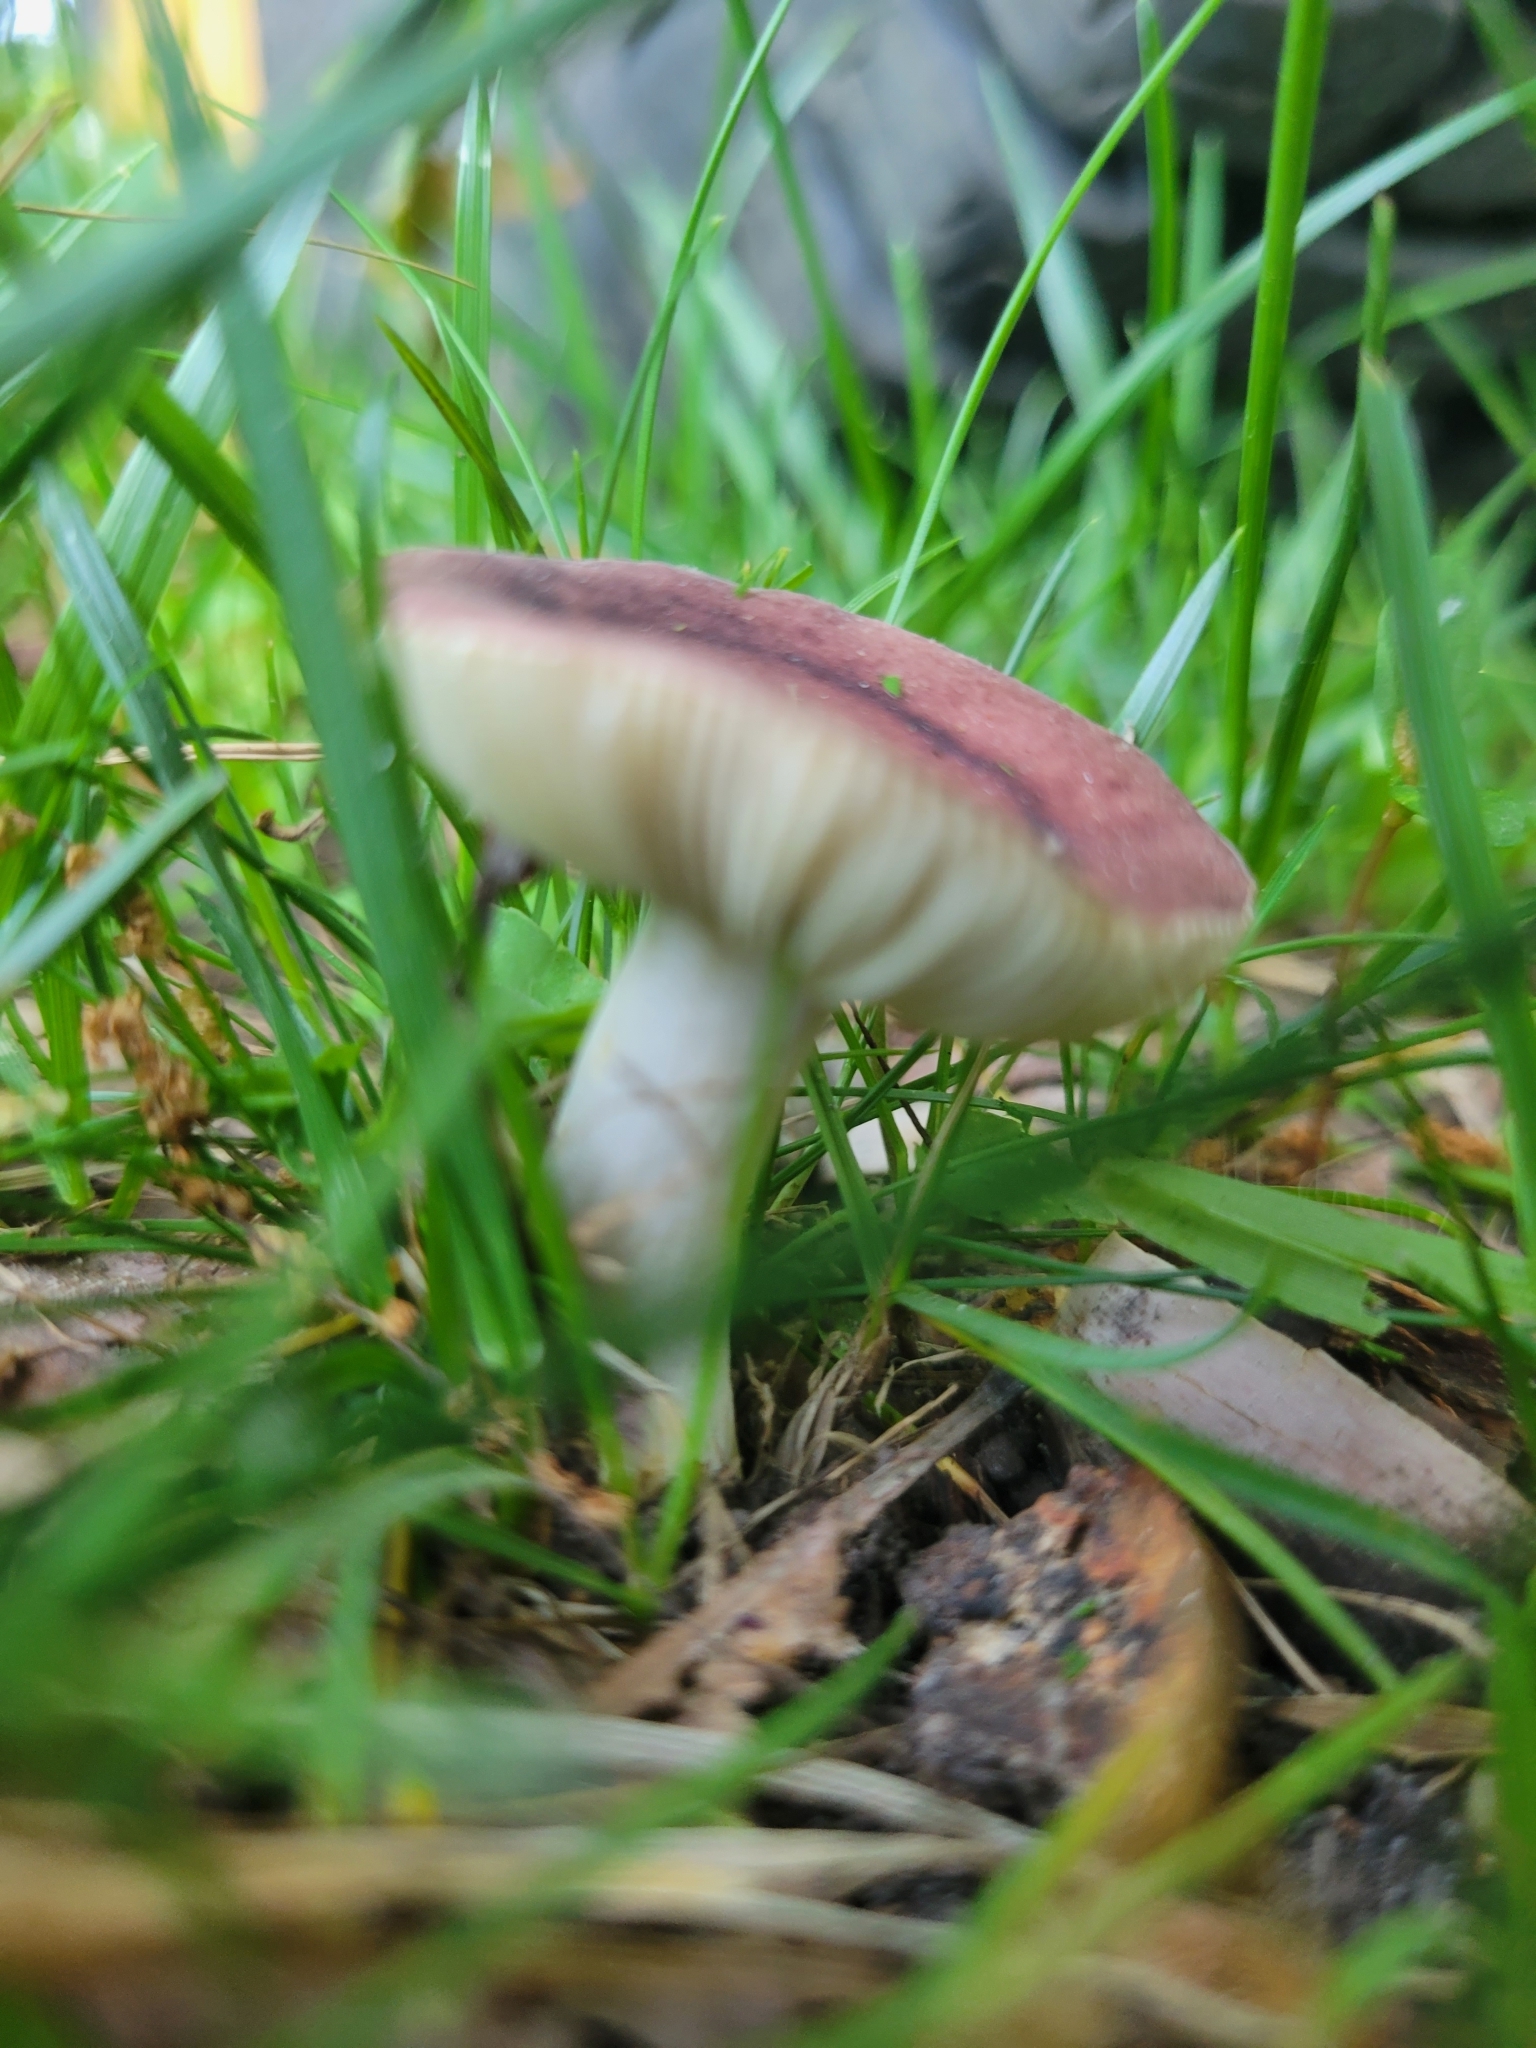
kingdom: Fungi
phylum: Basidiomycota
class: Agaricomycetes
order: Russulales
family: Russulaceae
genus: Russula
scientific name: Russula mariae
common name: Purple-bloom russula
